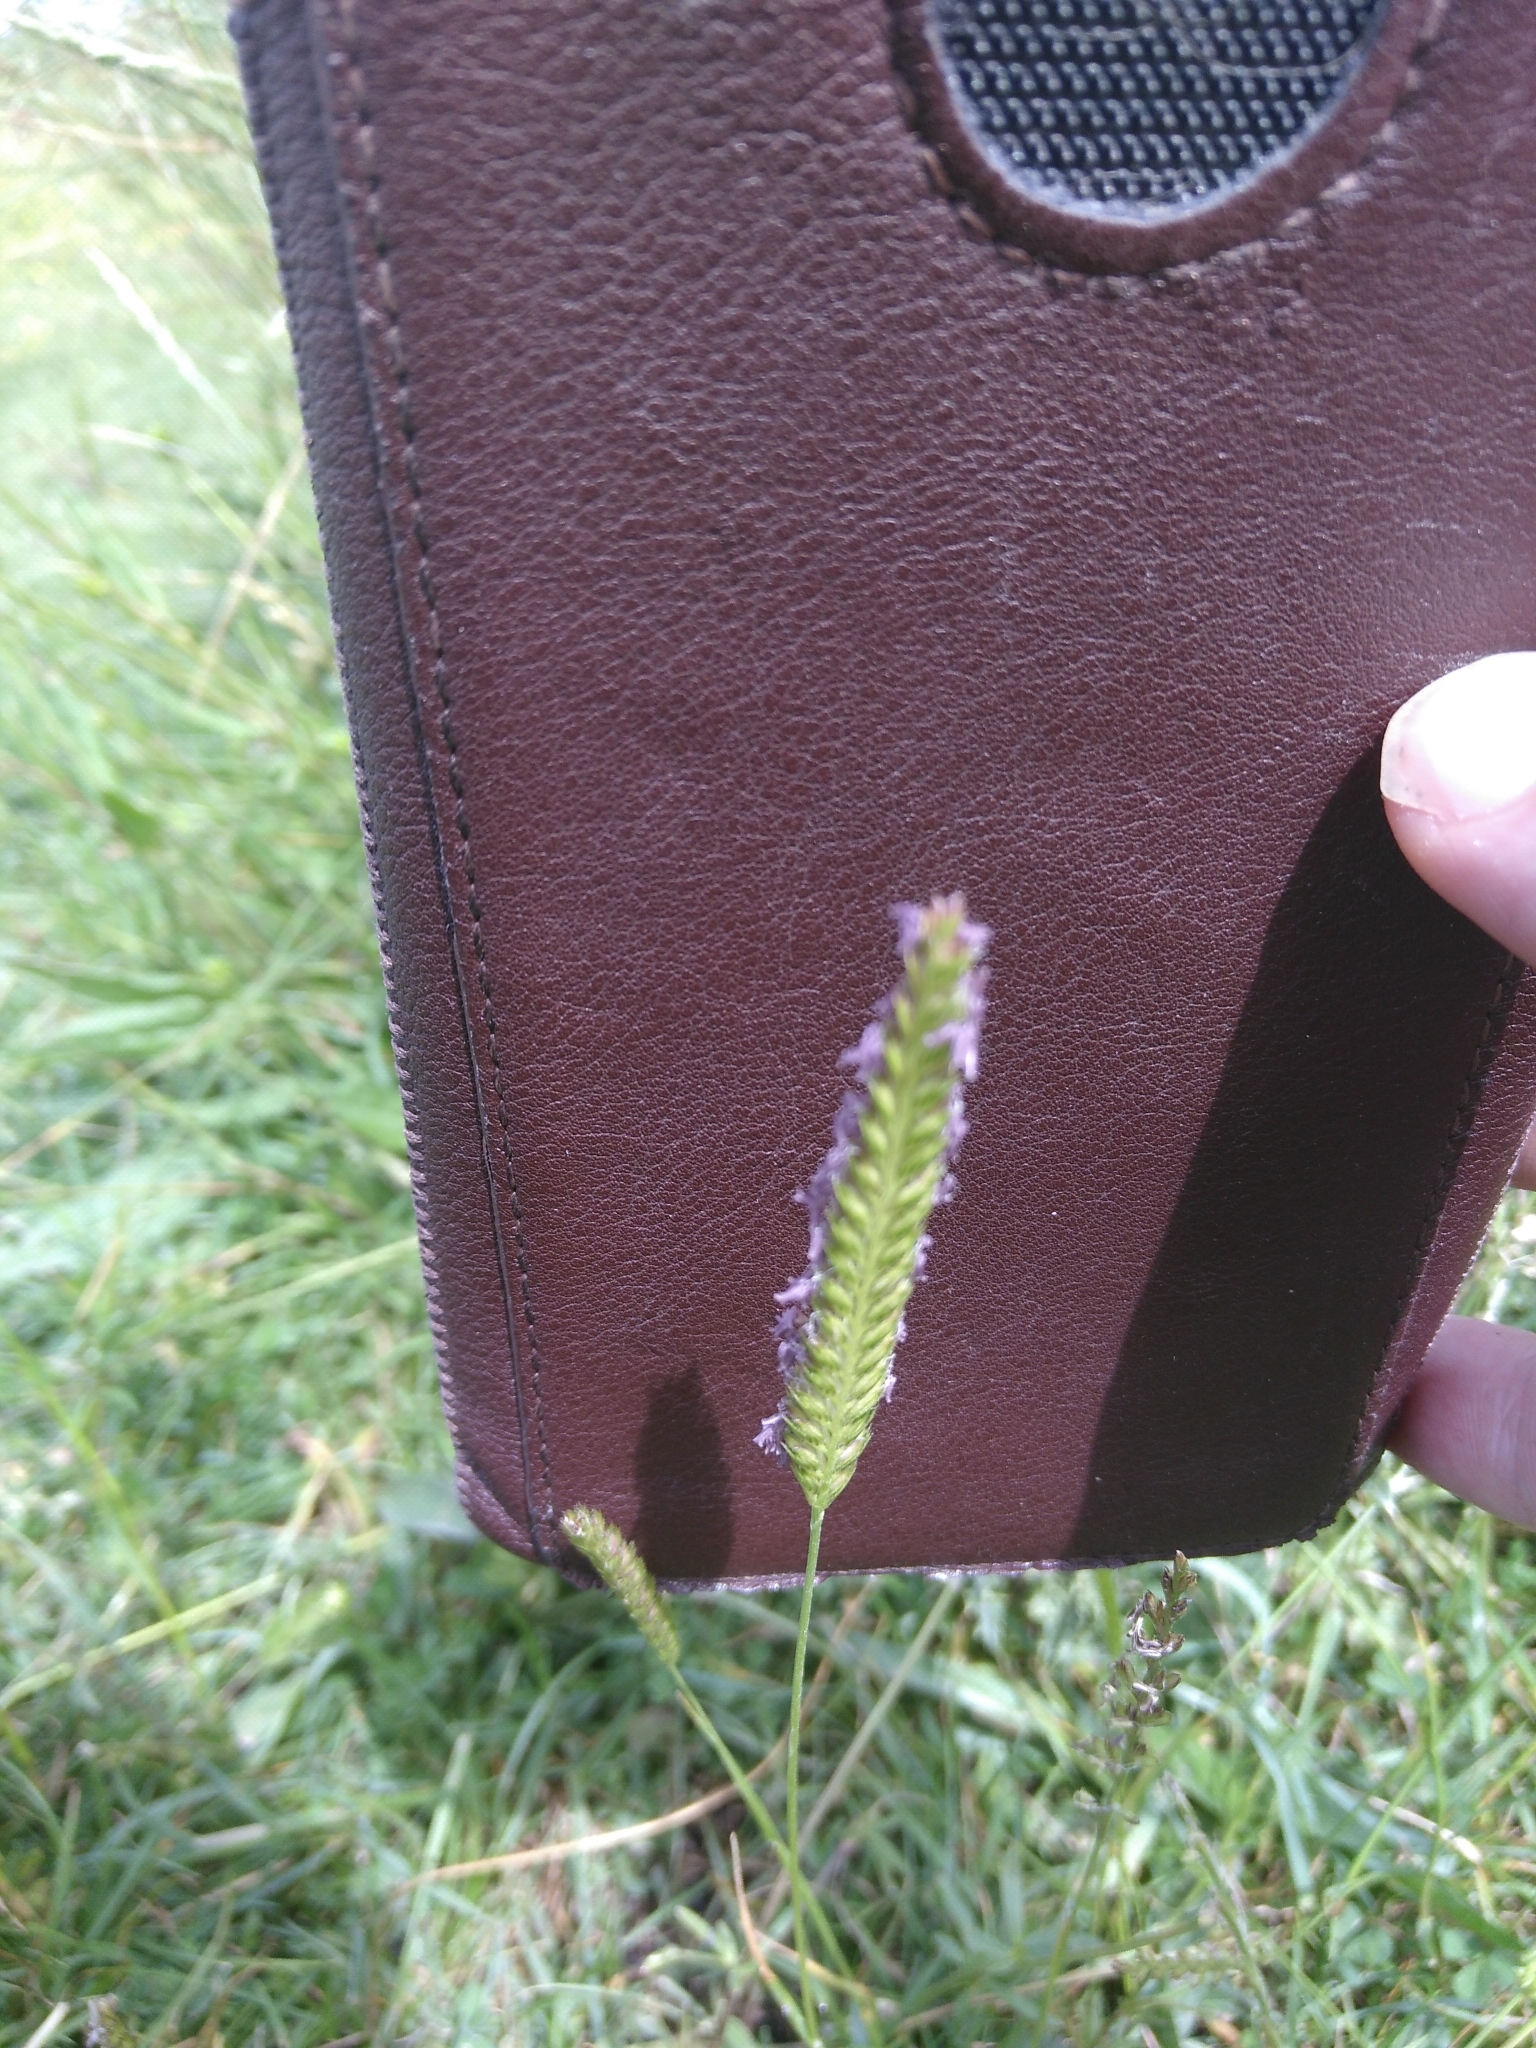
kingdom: Plantae
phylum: Tracheophyta
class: Liliopsida
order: Poales
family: Poaceae
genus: Cynosurus
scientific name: Cynosurus cristatus
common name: Crested dog's-tail
